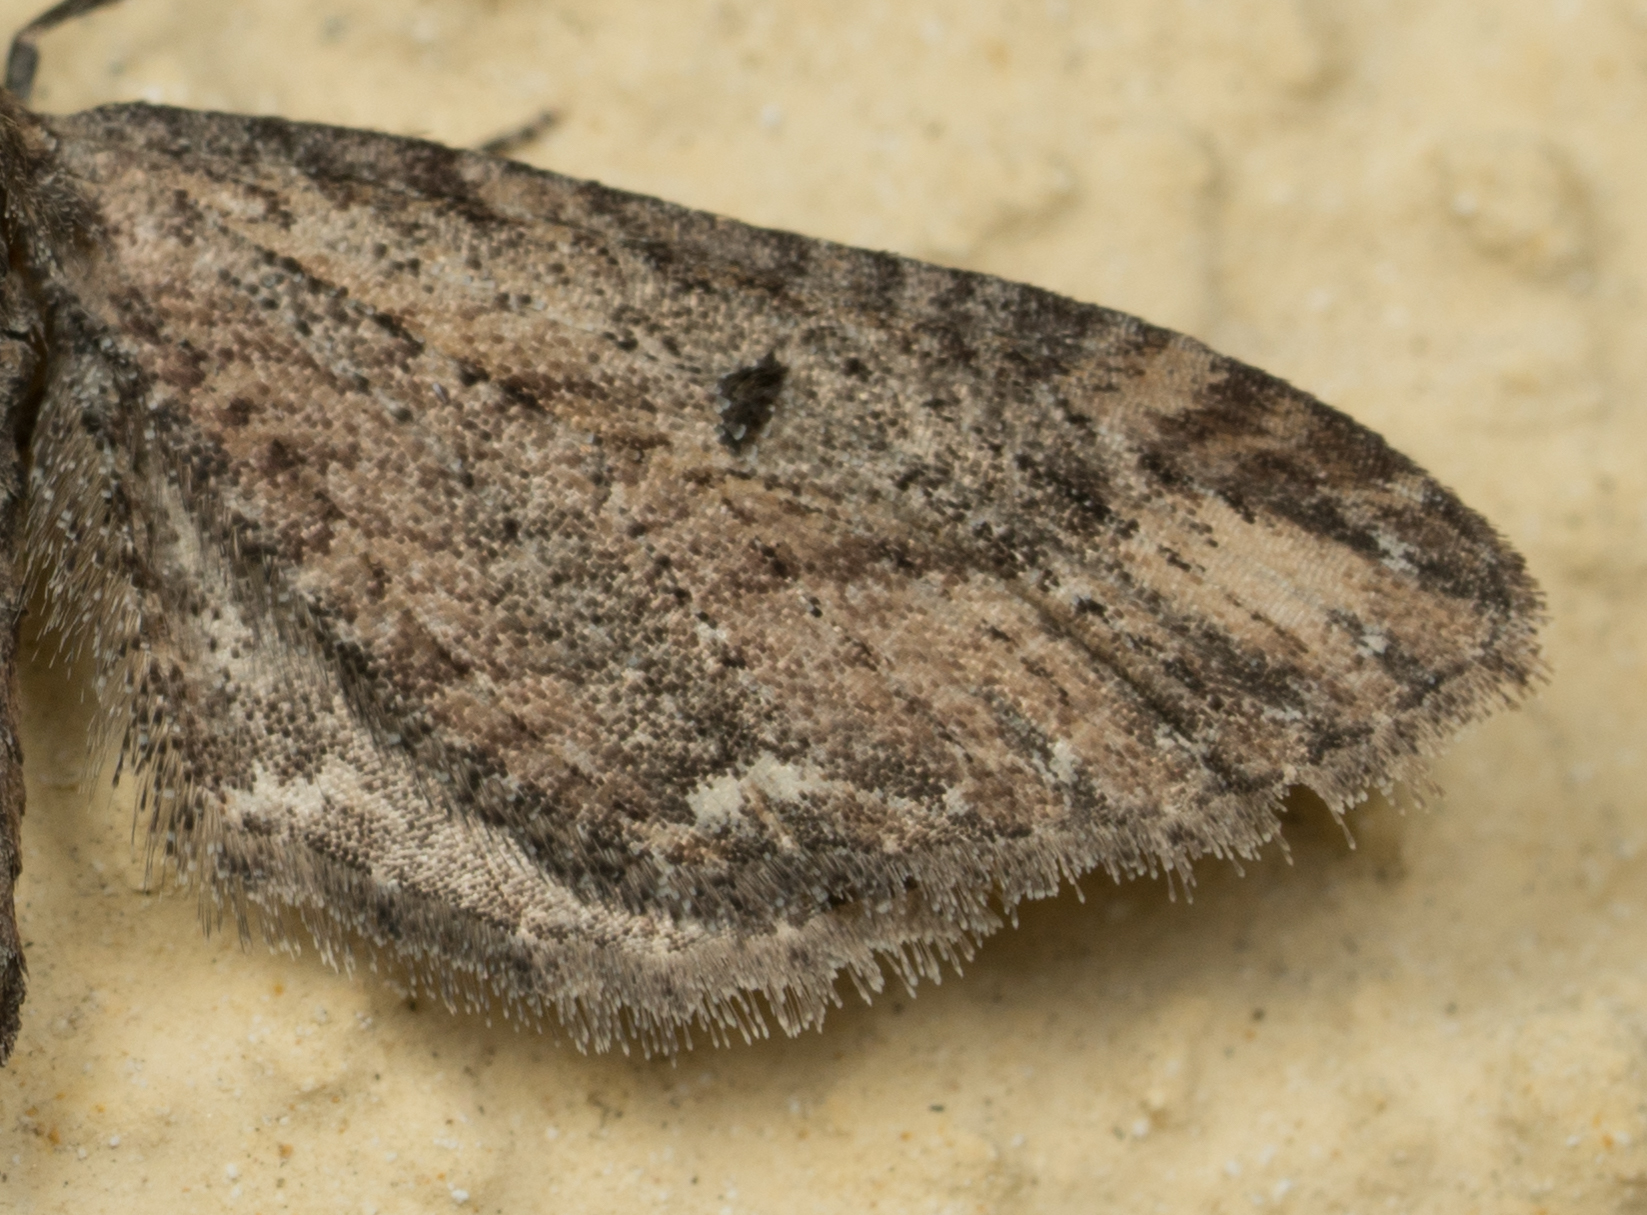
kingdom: Animalia
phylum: Arthropoda
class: Insecta
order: Lepidoptera
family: Geometridae
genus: Eupithecia
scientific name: Eupithecia subapicata
